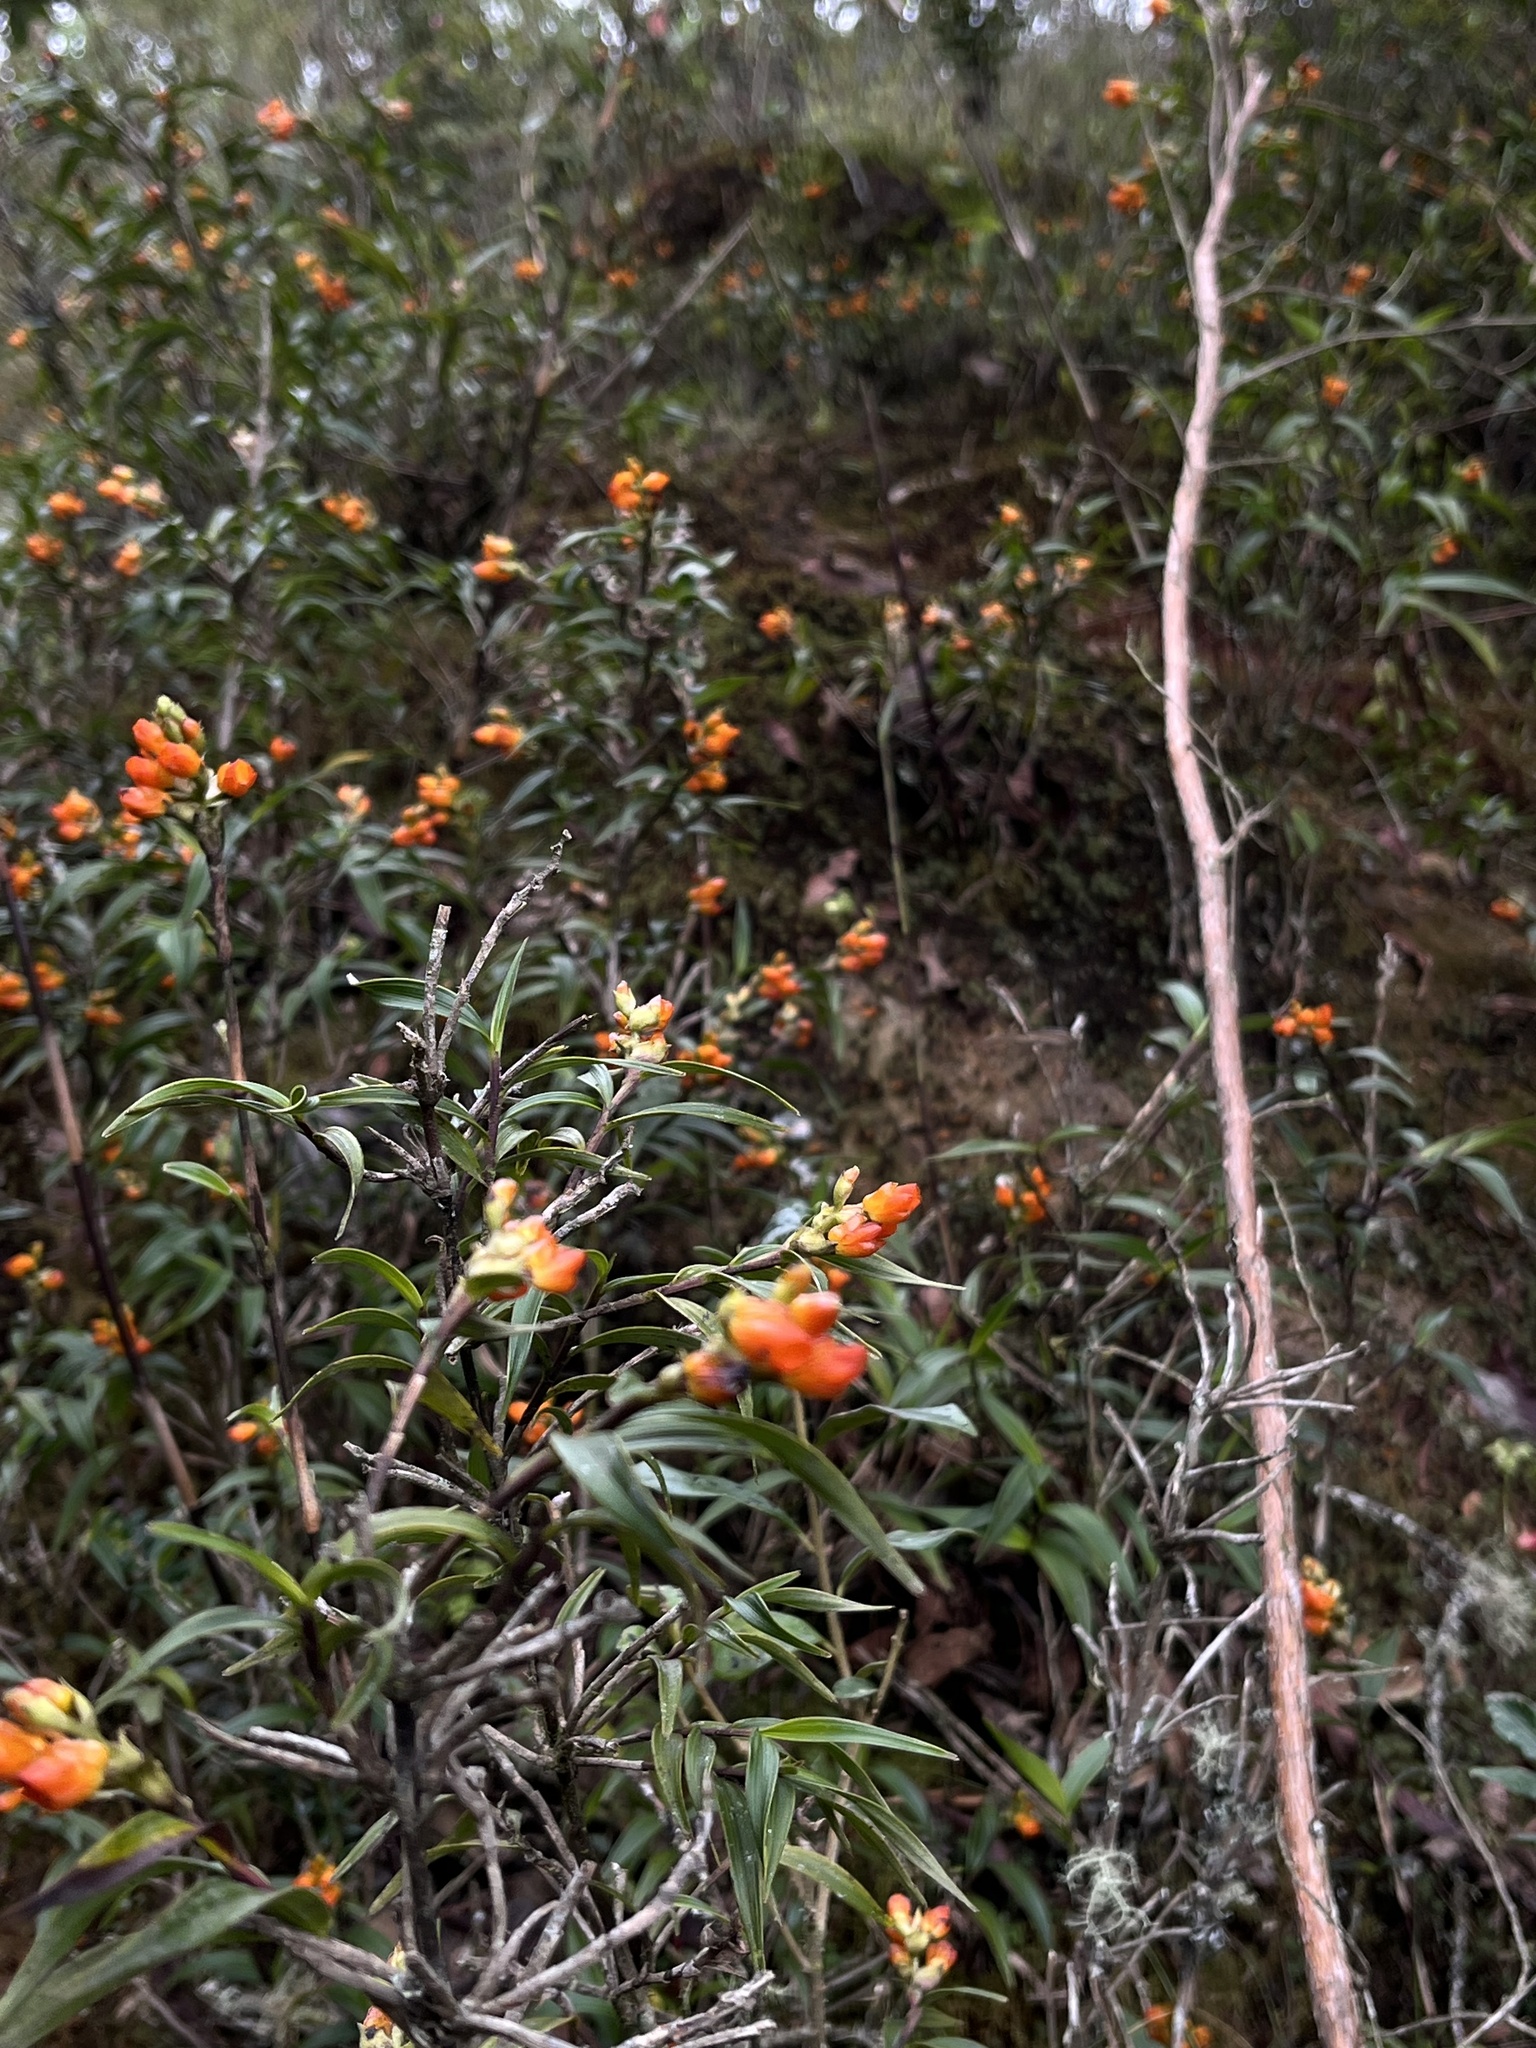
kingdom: Plantae
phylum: Tracheophyta
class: Liliopsida
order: Asparagales
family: Orchidaceae
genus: Elleanthus
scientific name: Elleanthus aurantiacus
